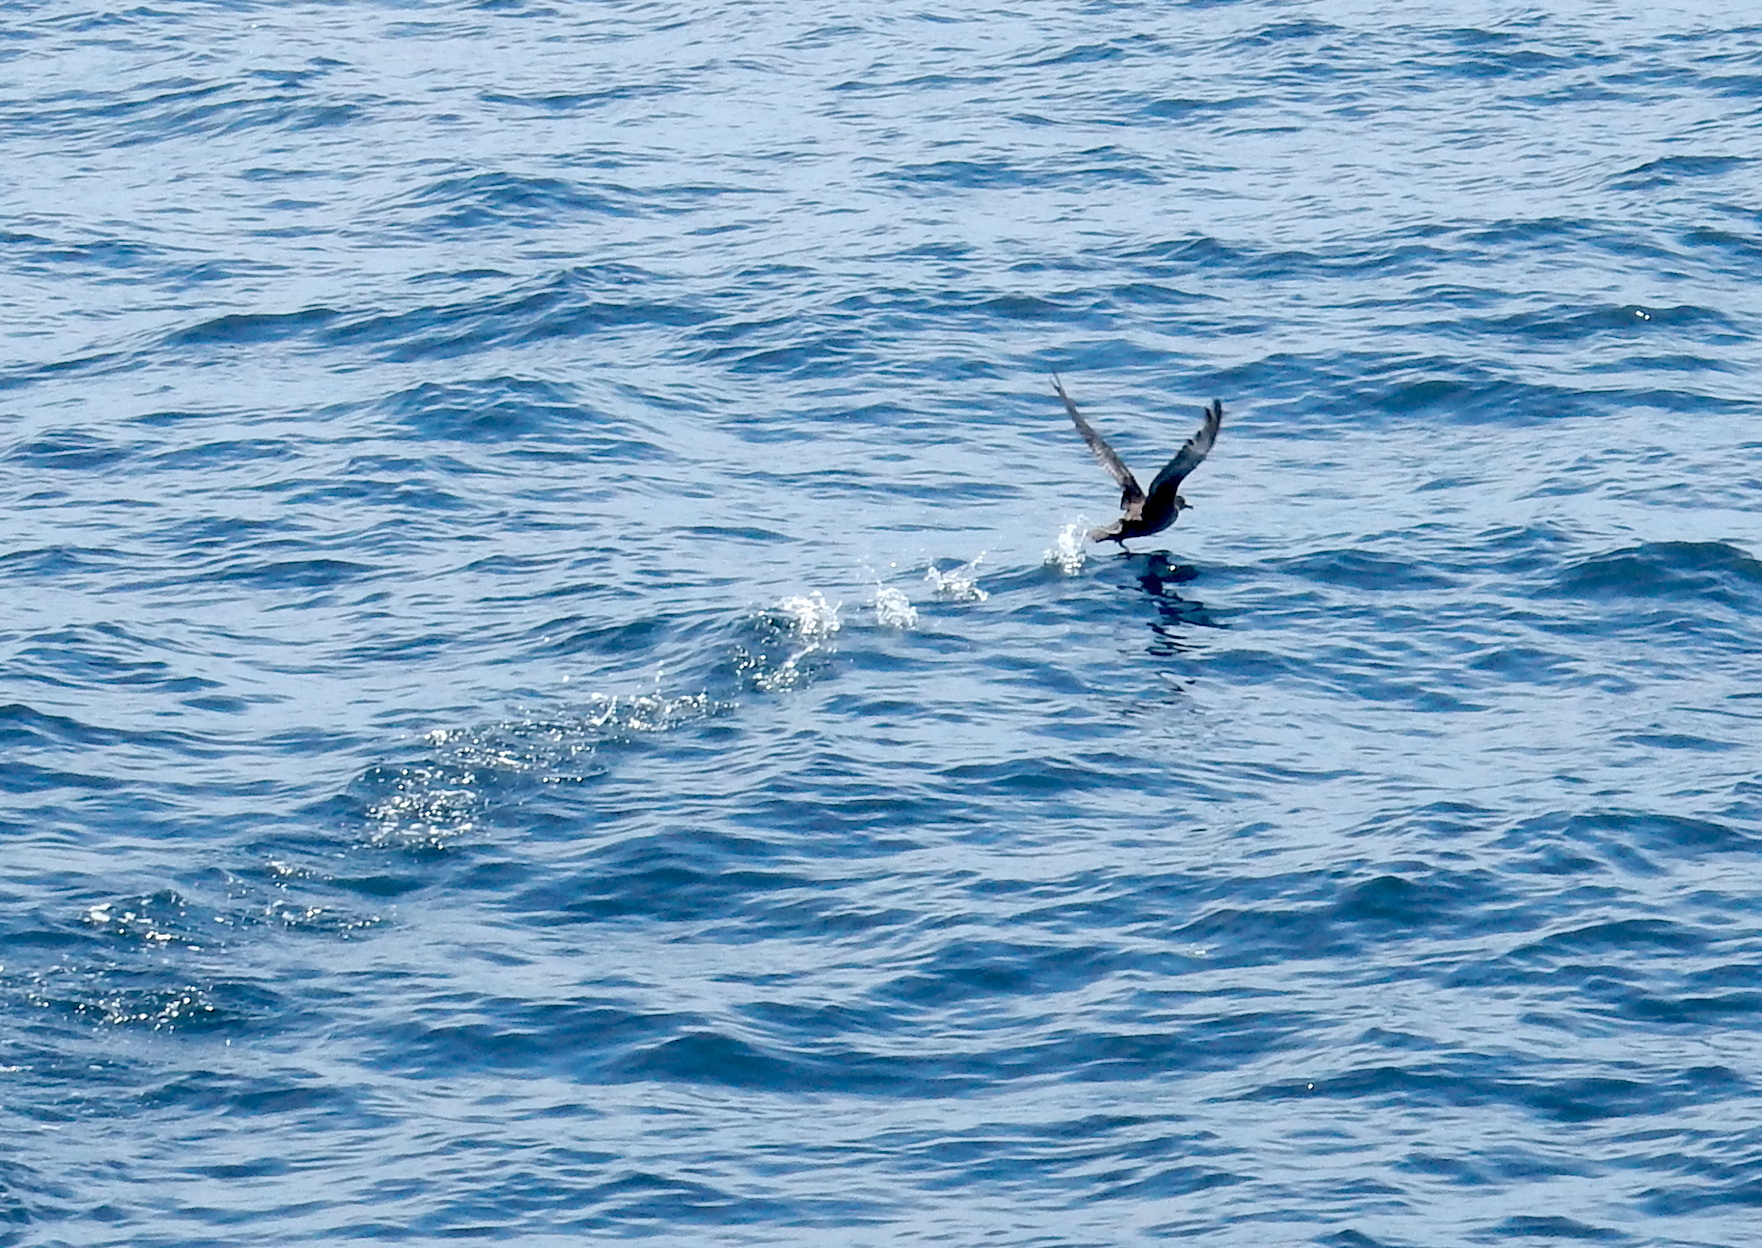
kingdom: Animalia
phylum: Chordata
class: Aves
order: Procellariiformes
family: Procellariidae
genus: Puffinus
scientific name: Puffinus griseus
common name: Sooty shearwater
